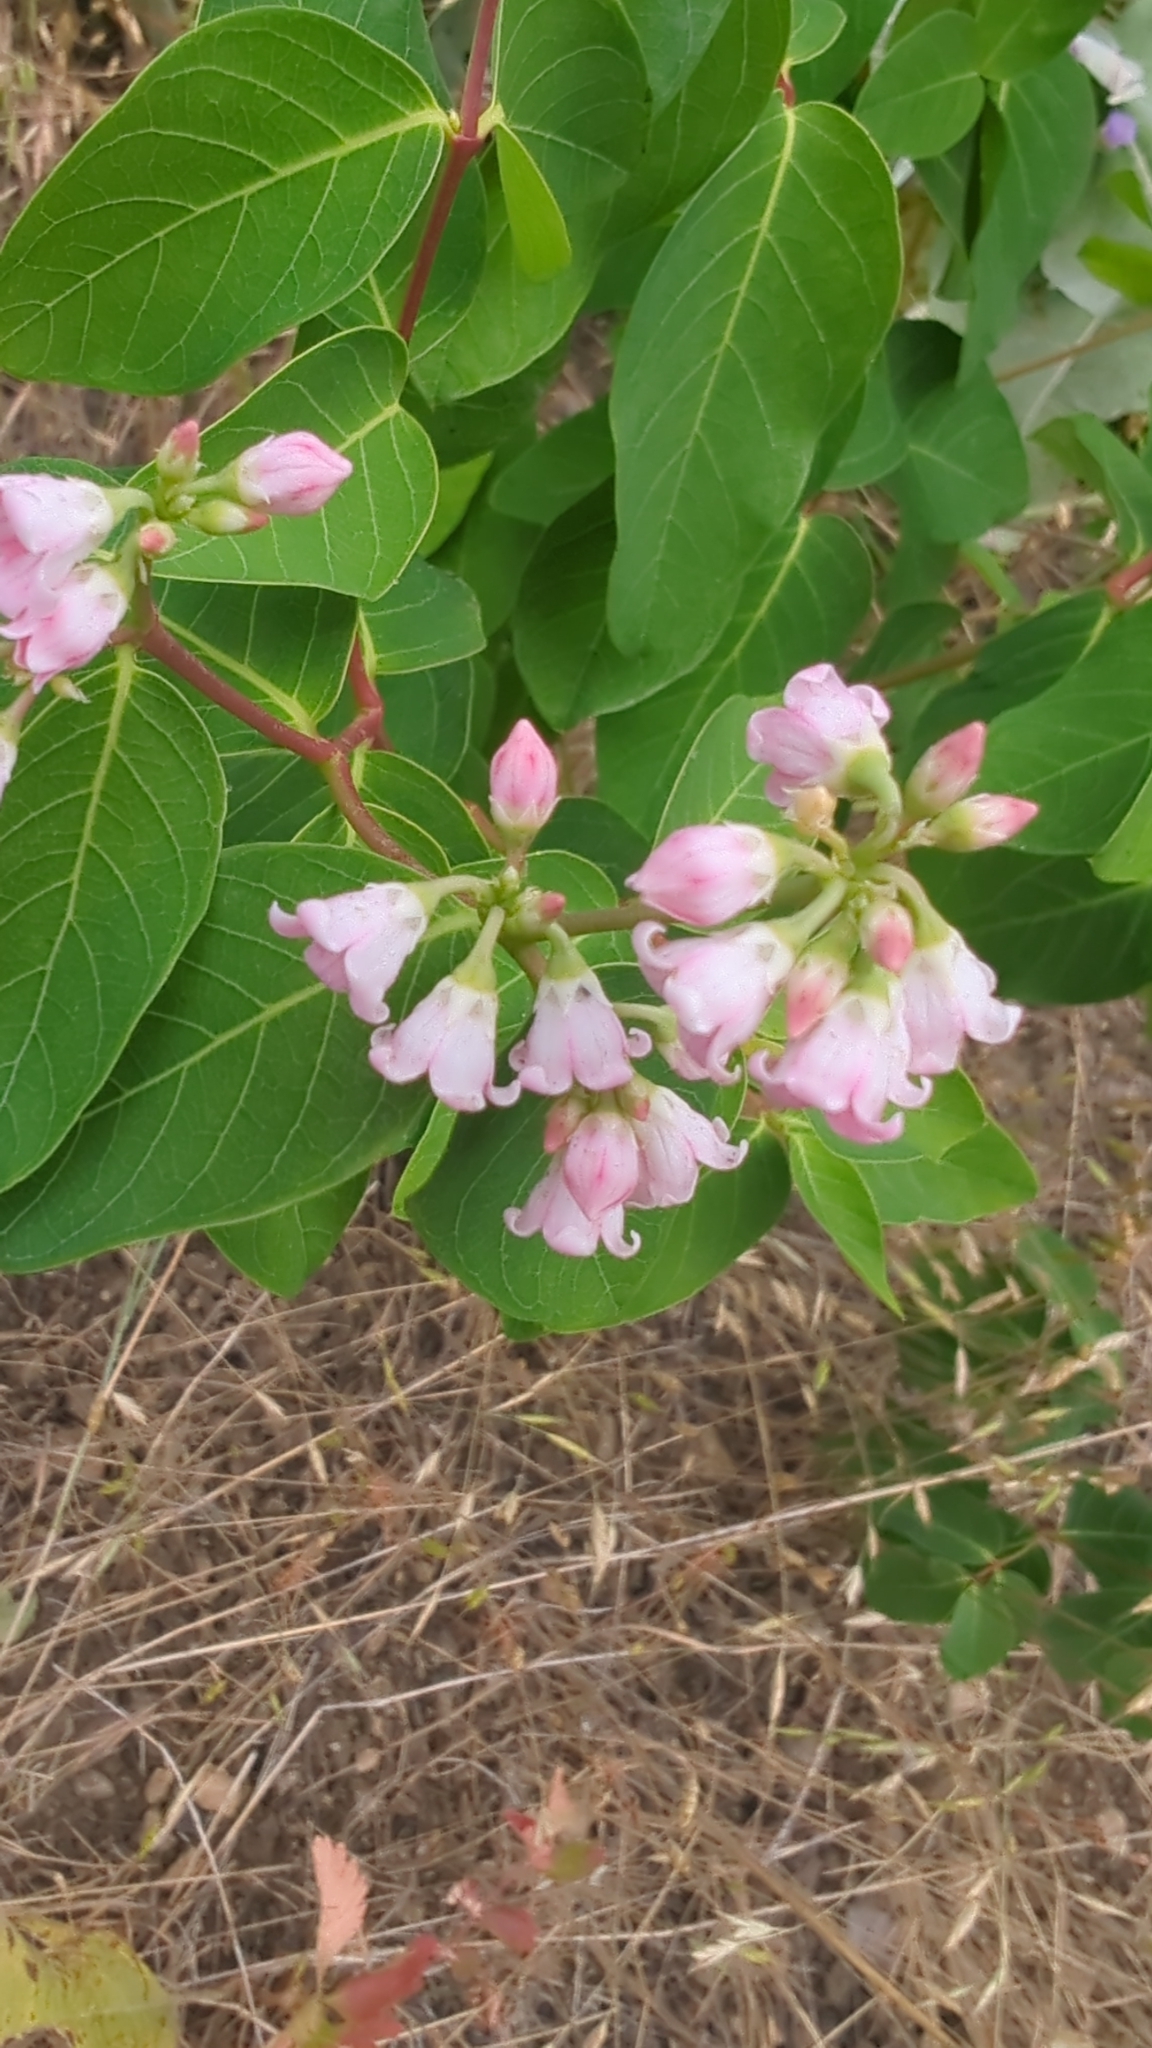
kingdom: Plantae
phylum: Tracheophyta
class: Magnoliopsida
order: Gentianales
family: Apocynaceae
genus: Apocynum
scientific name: Apocynum androsaemifolium
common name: Spreading dogbane
